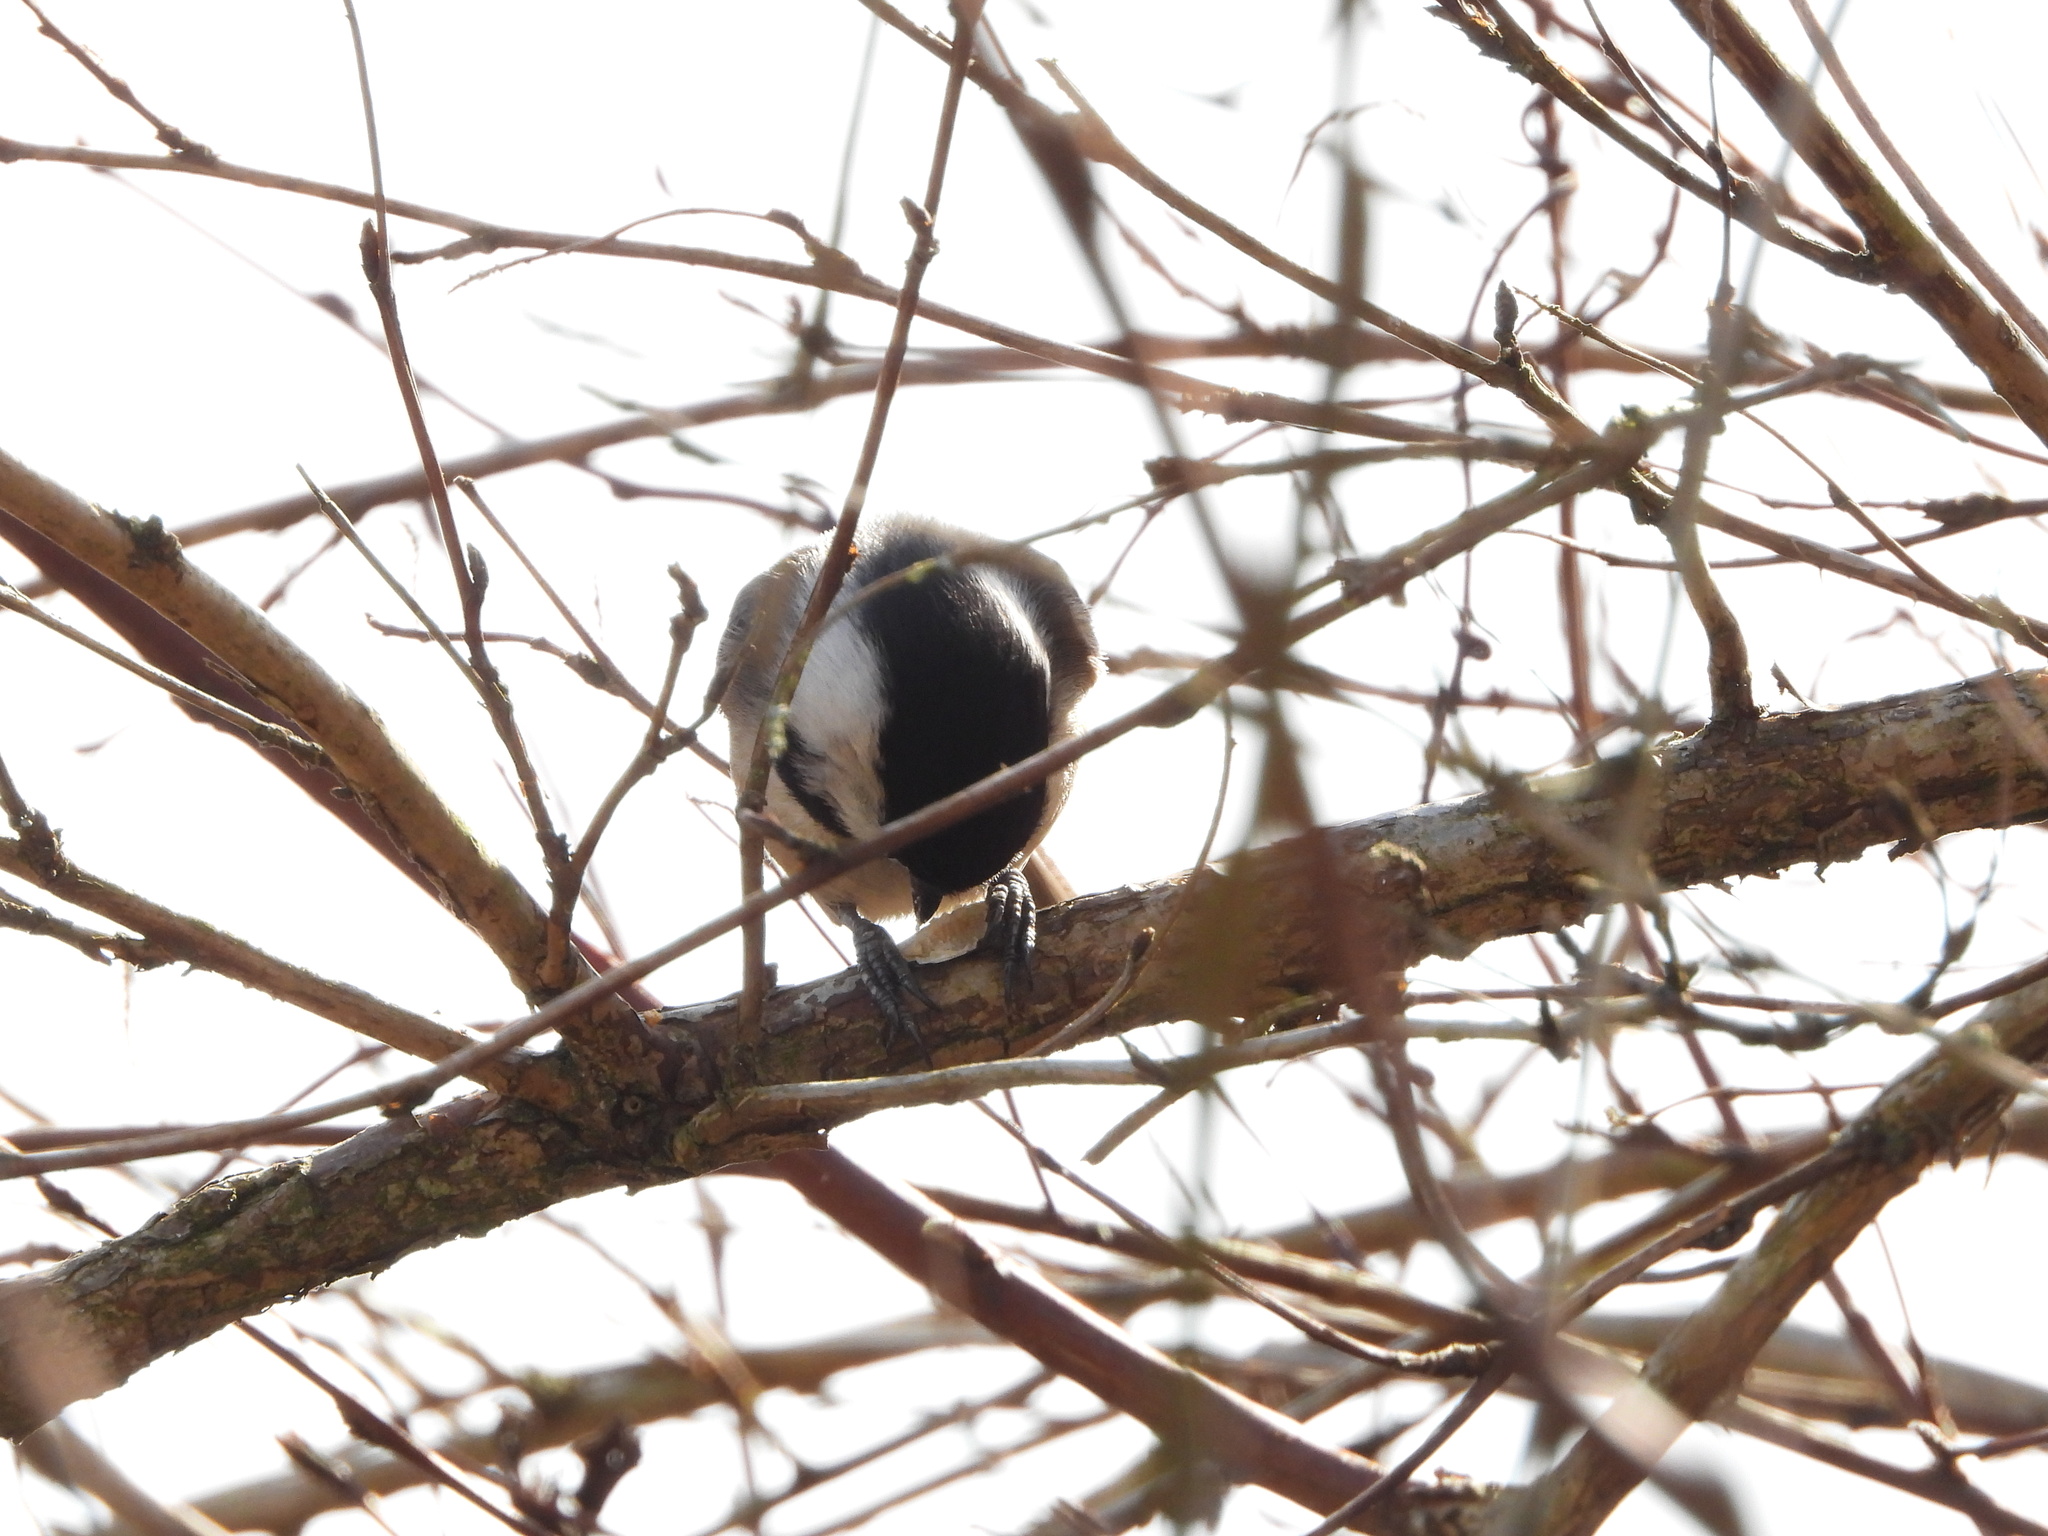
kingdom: Animalia
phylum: Chordata
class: Aves
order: Passeriformes
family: Paridae
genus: Poecile
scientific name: Poecile atricapillus
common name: Black-capped chickadee
